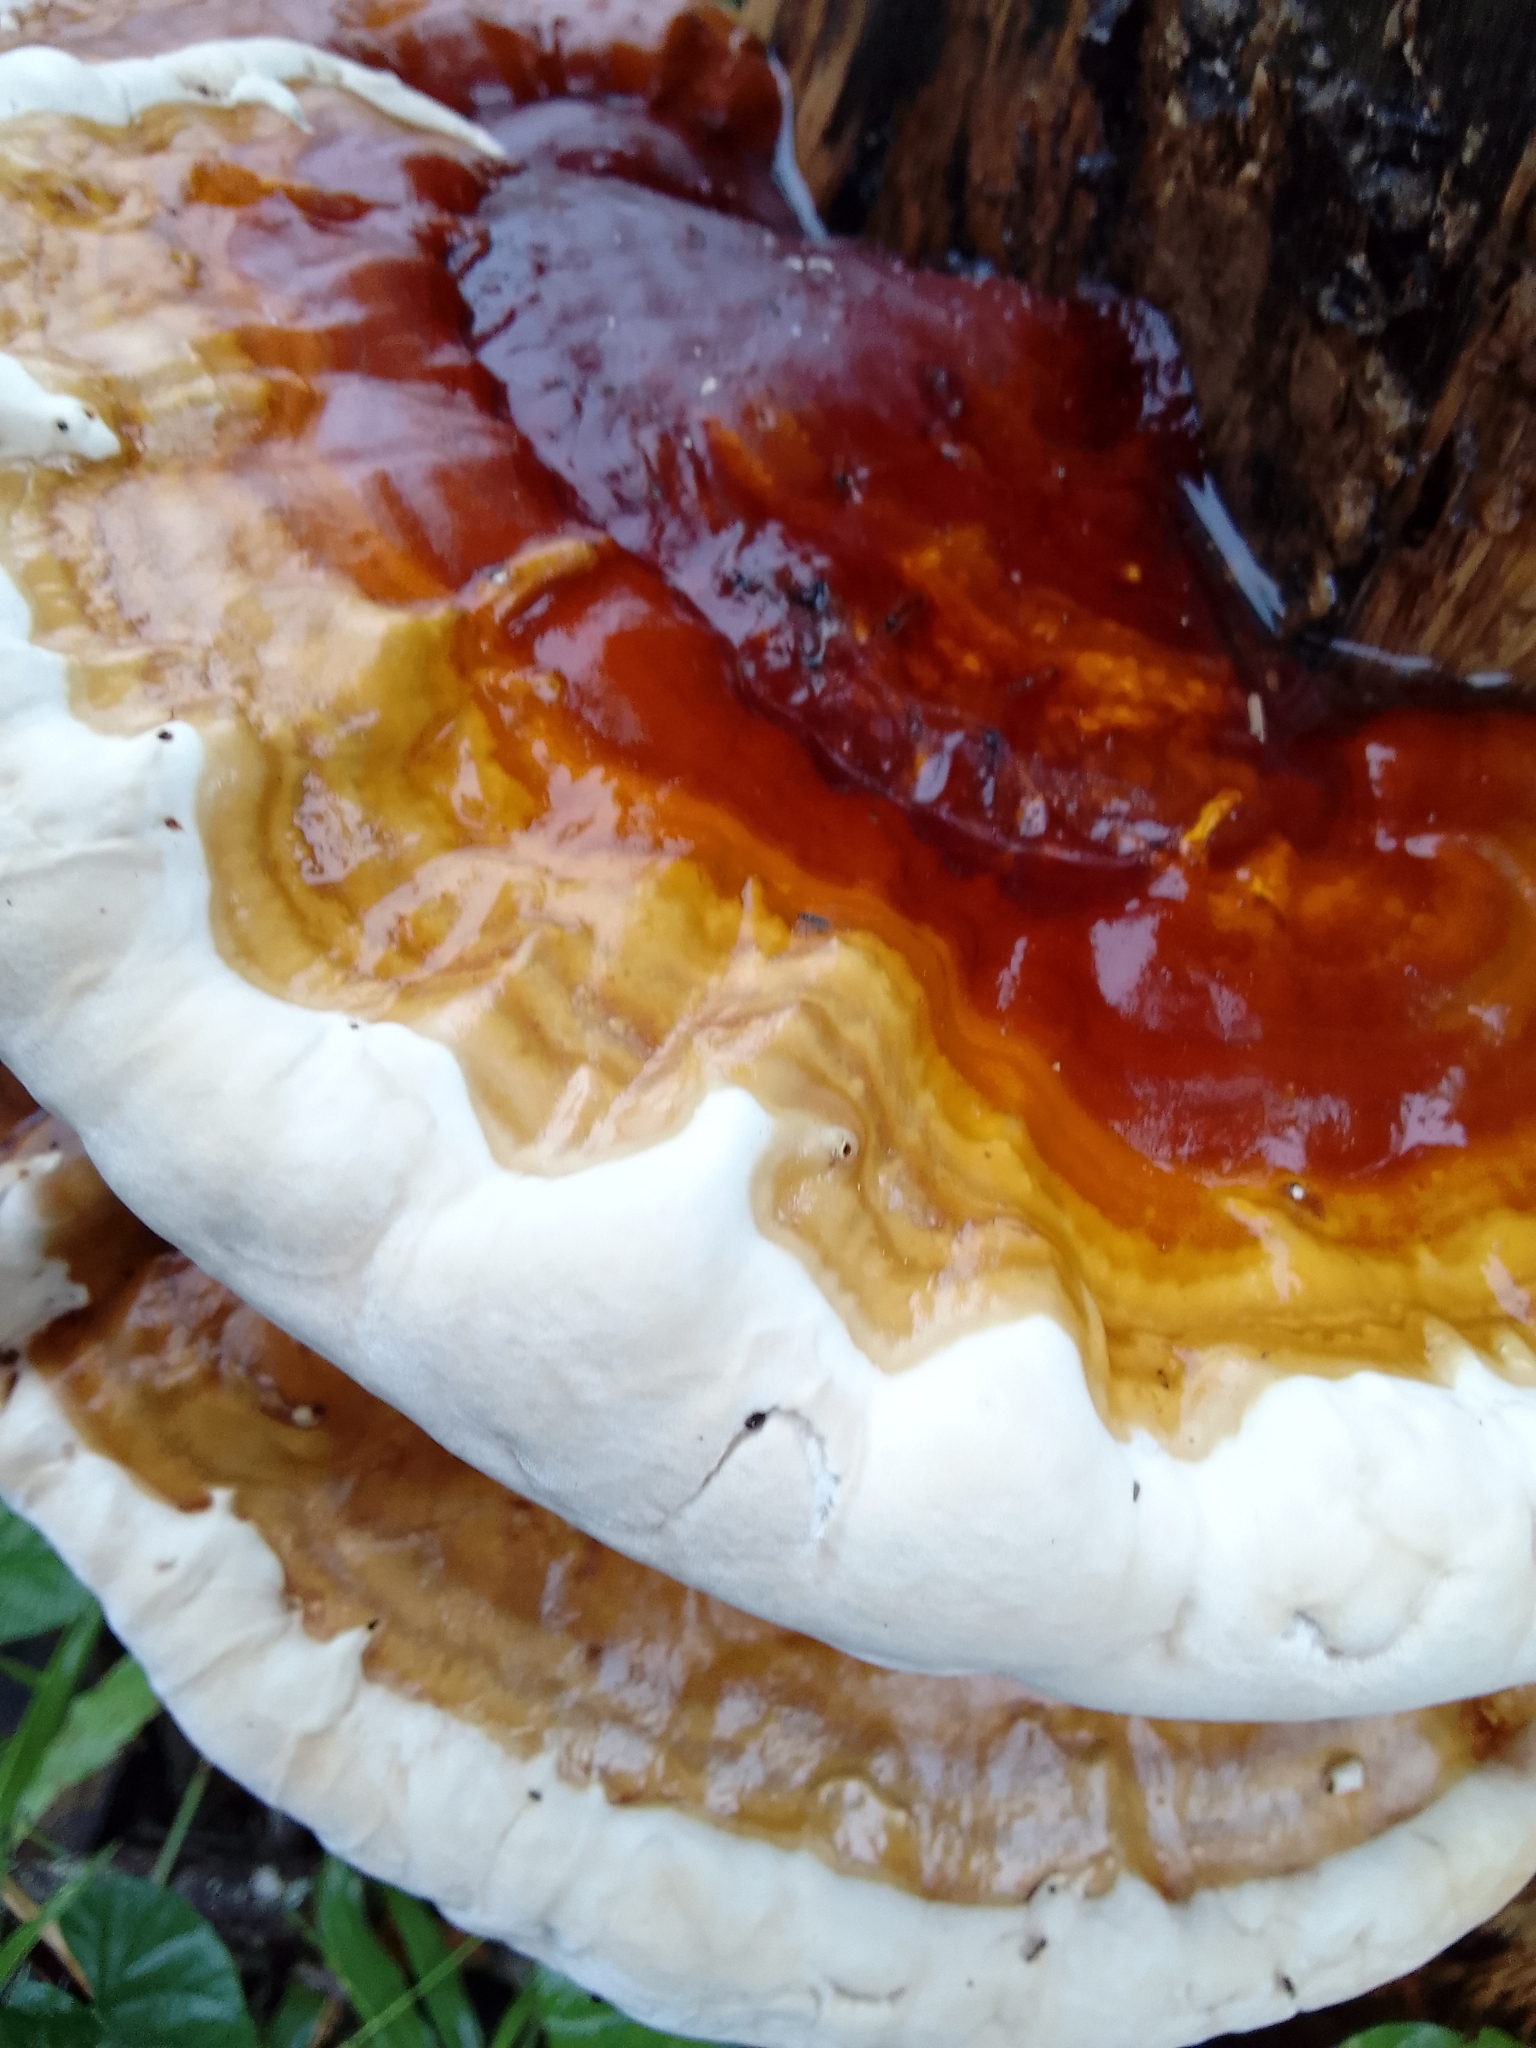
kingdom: Fungi
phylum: Basidiomycota
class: Agaricomycetes
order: Polyporales
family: Polyporaceae
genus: Ganoderma
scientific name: Ganoderma tsugae
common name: Hemlock varnish shelf
